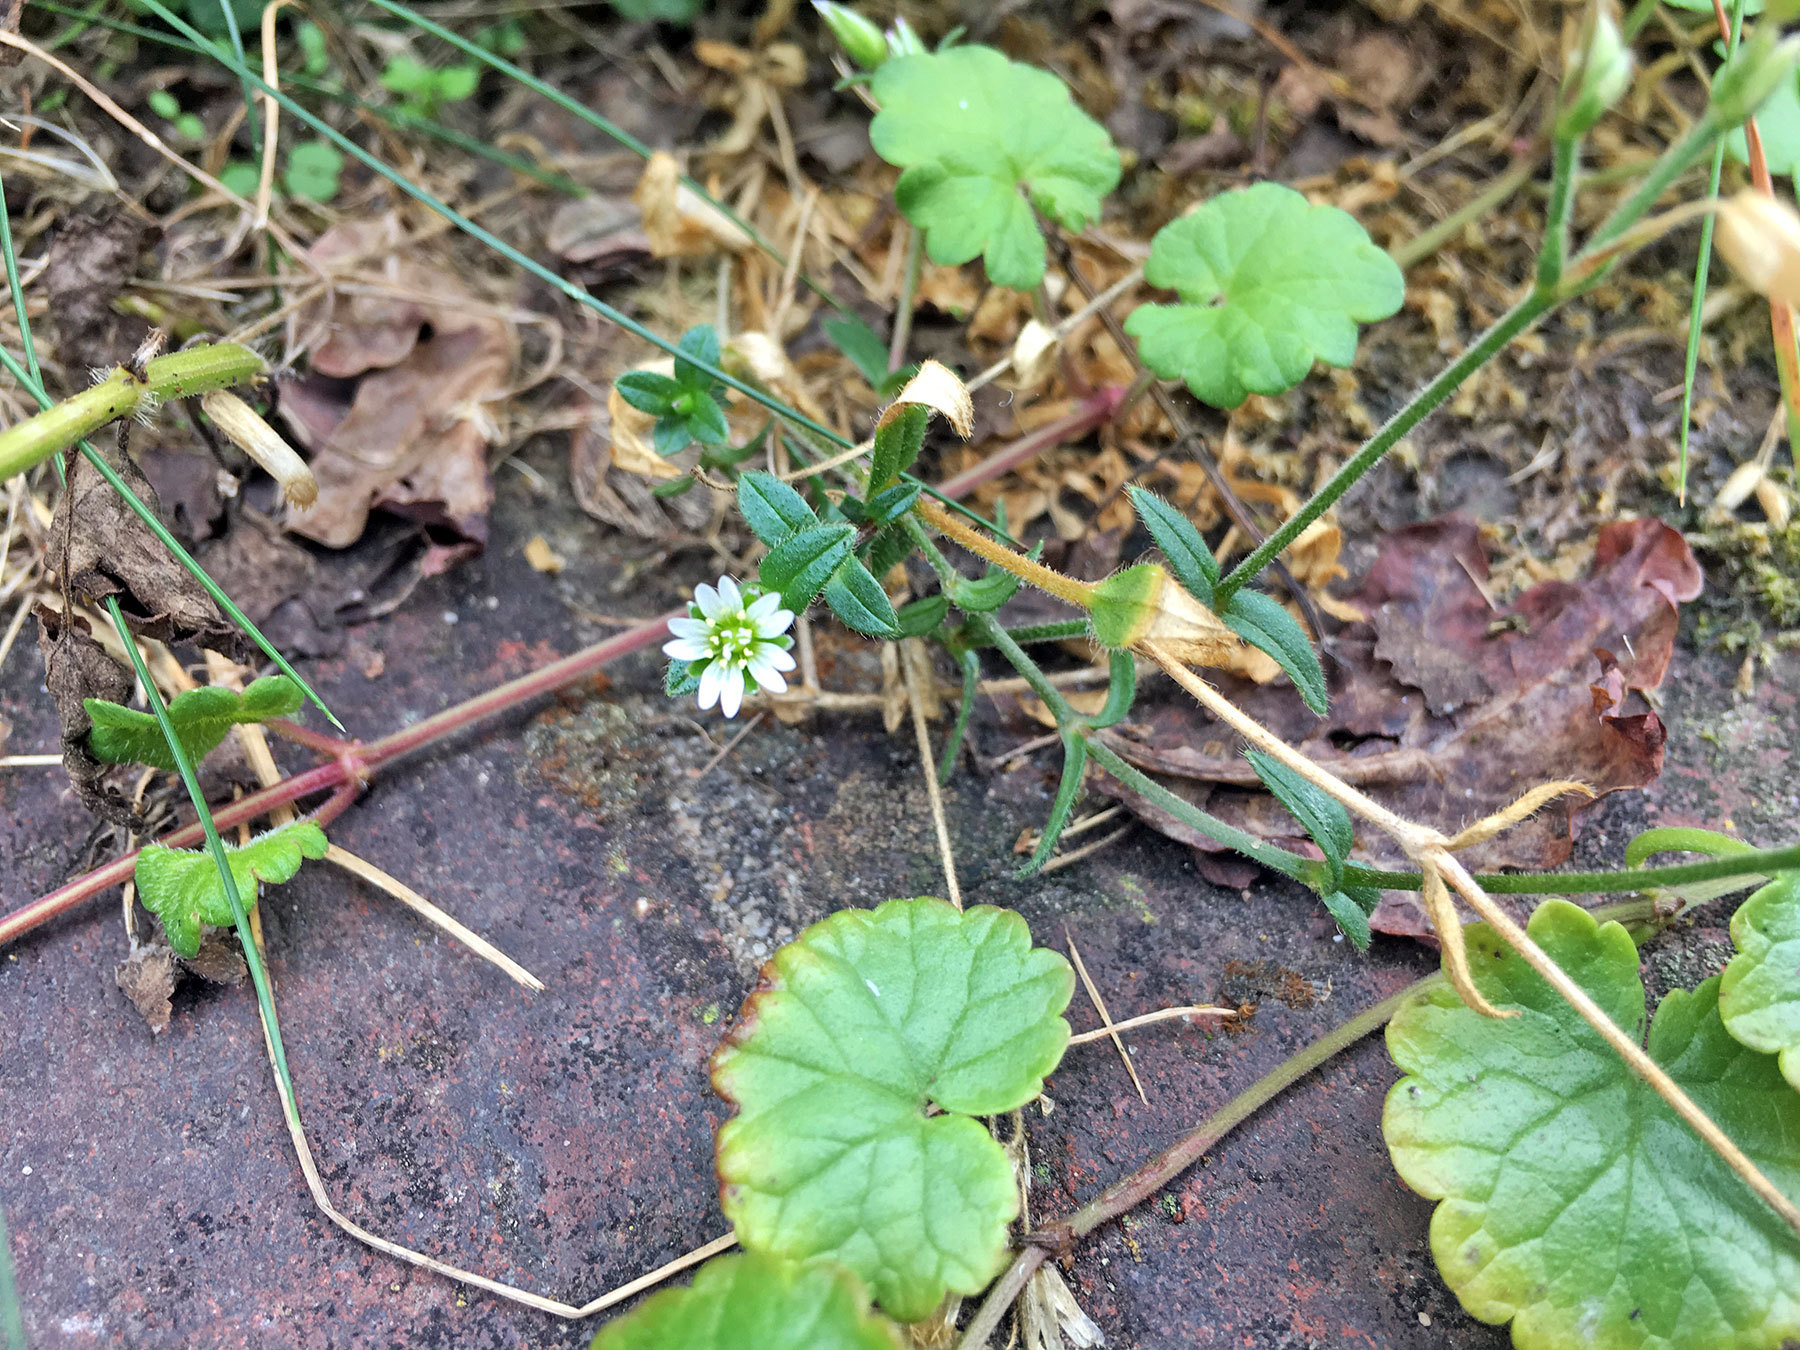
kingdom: Plantae
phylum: Tracheophyta
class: Magnoliopsida
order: Caryophyllales
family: Caryophyllaceae
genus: Cerastium
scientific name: Cerastium holosteoides
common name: Big chickweed
